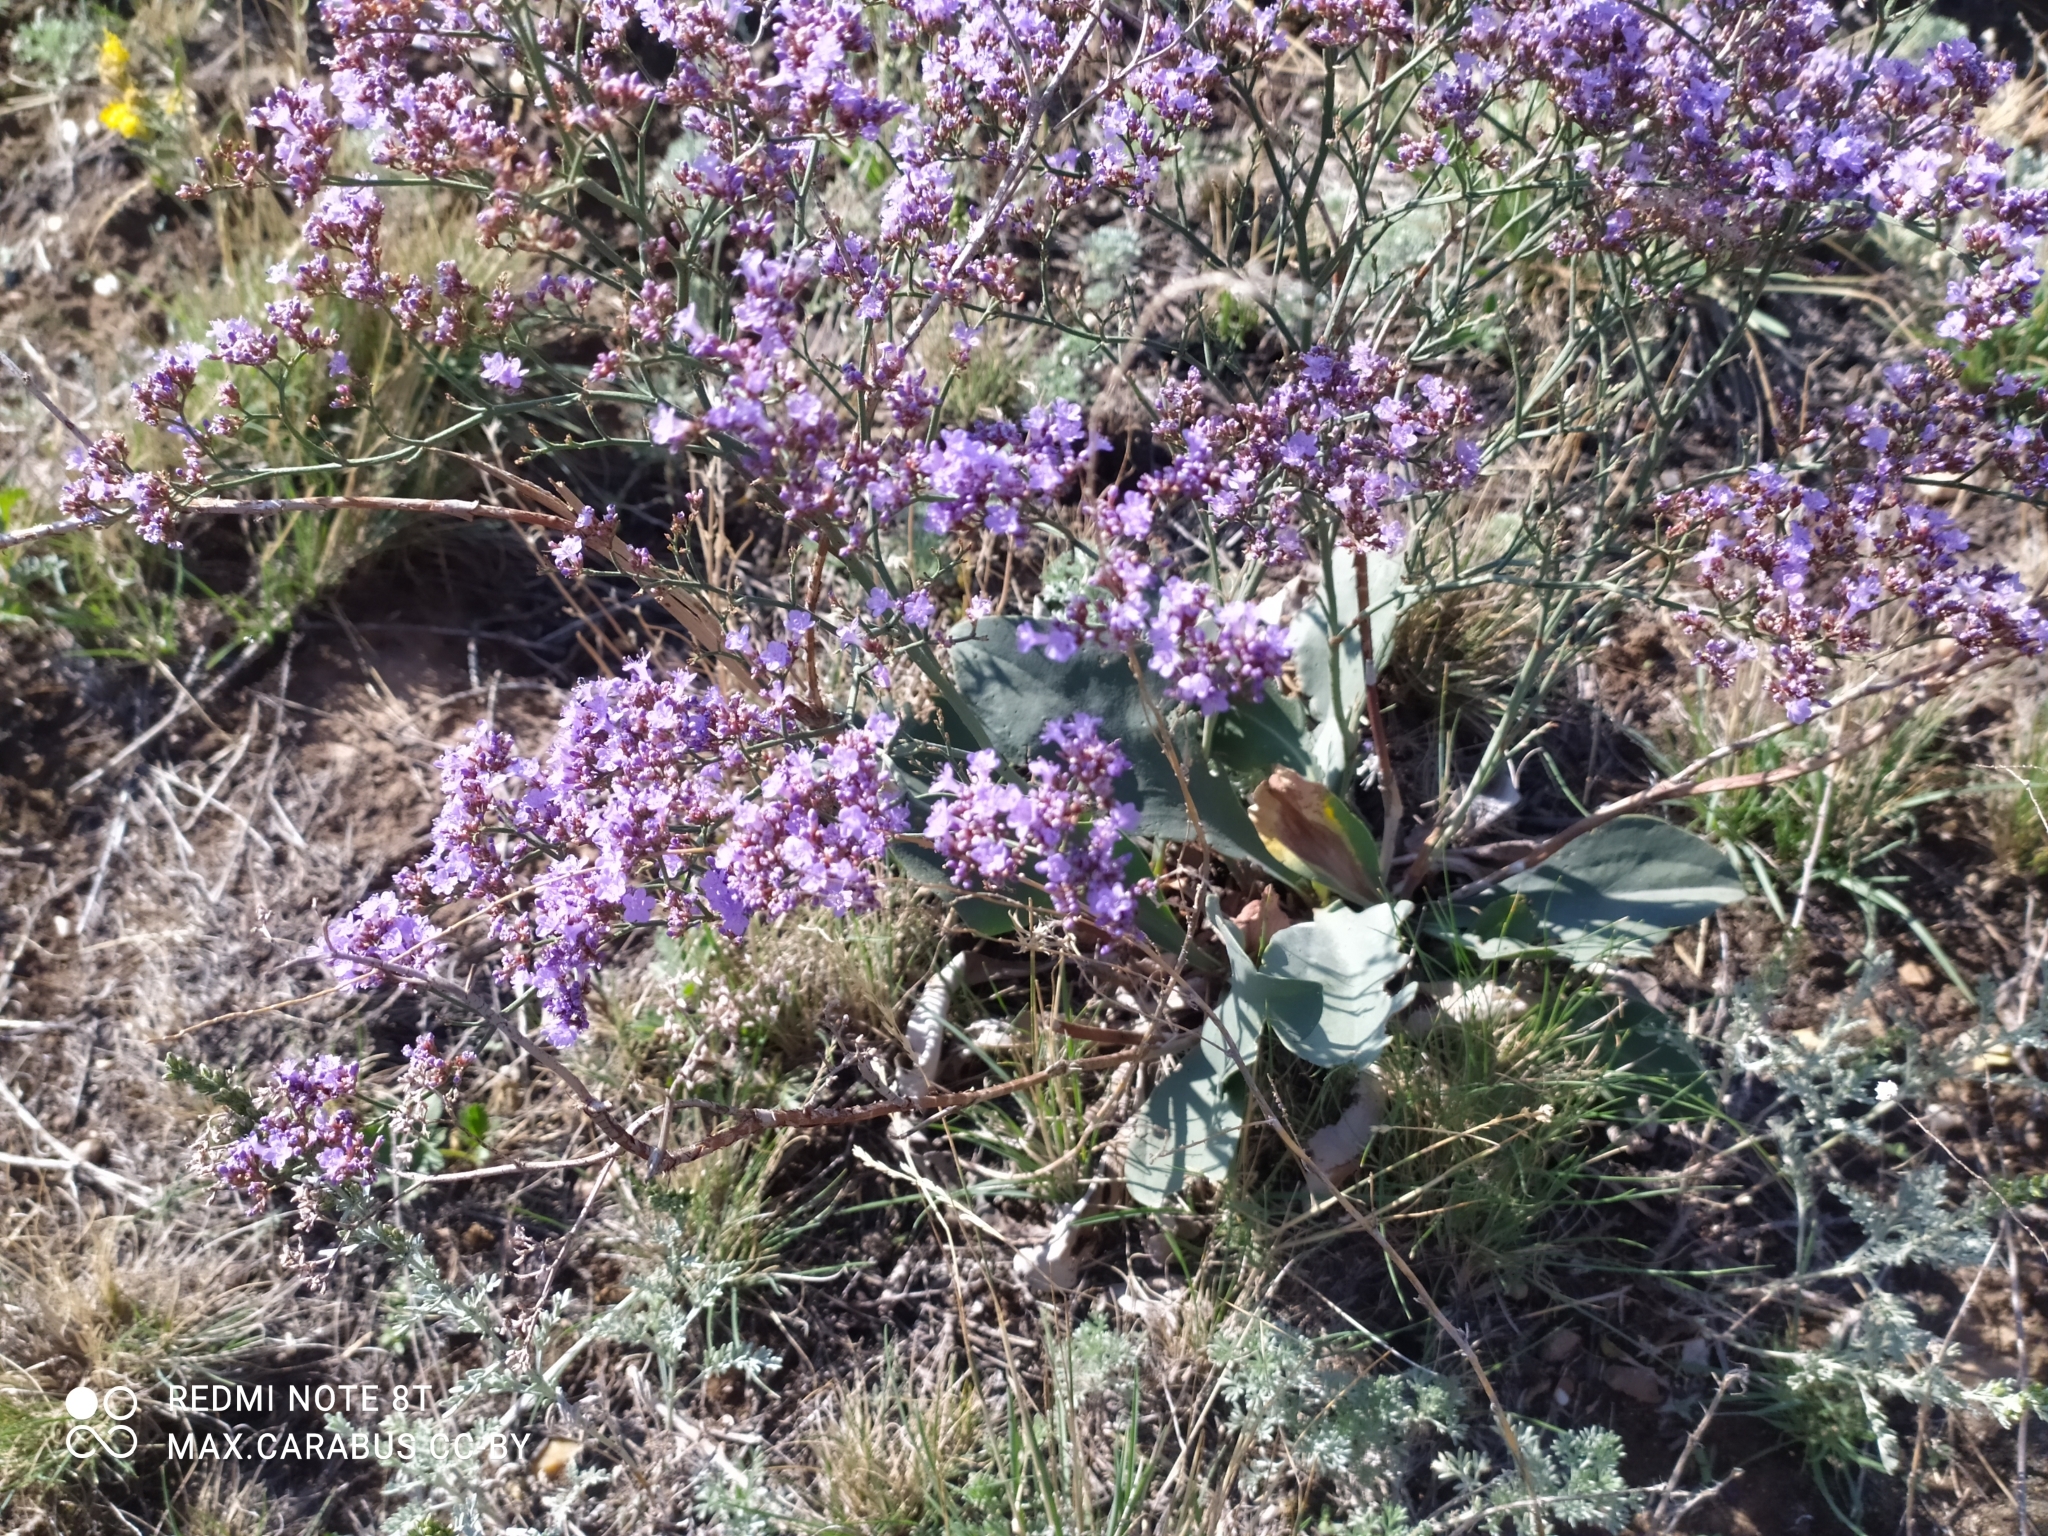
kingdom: Plantae
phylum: Tracheophyta
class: Magnoliopsida
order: Caryophyllales
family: Plumbaginaceae
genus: Limonium
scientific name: Limonium gmelini
